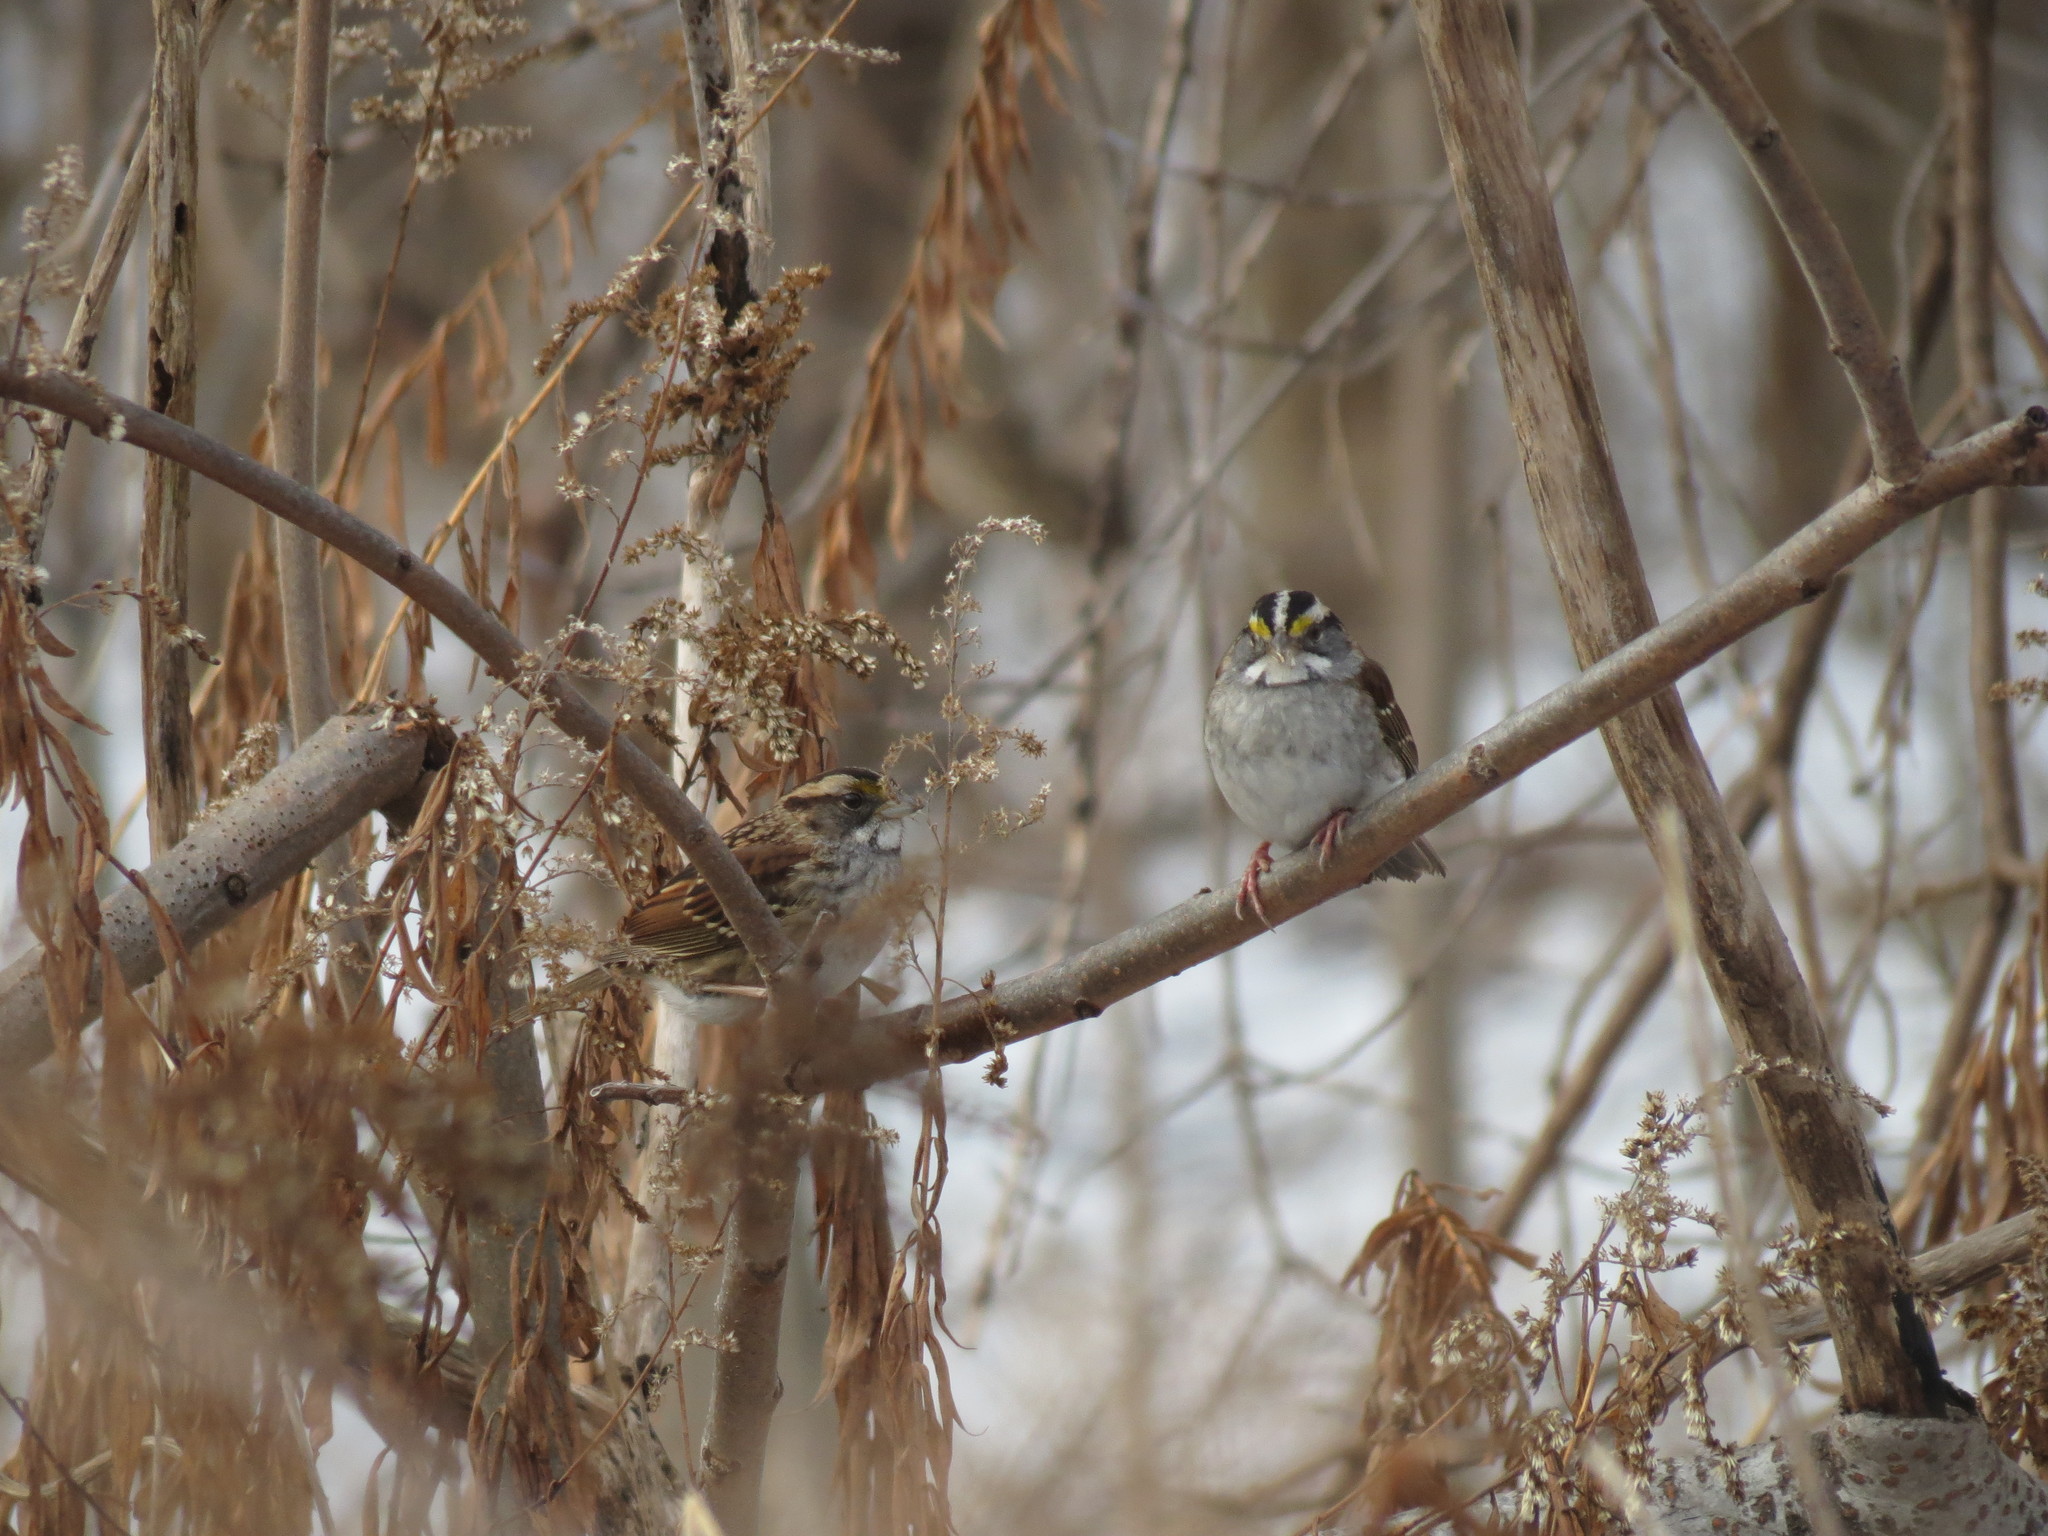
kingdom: Animalia
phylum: Chordata
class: Aves
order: Passeriformes
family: Passerellidae
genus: Zonotrichia
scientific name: Zonotrichia albicollis
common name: White-throated sparrow
